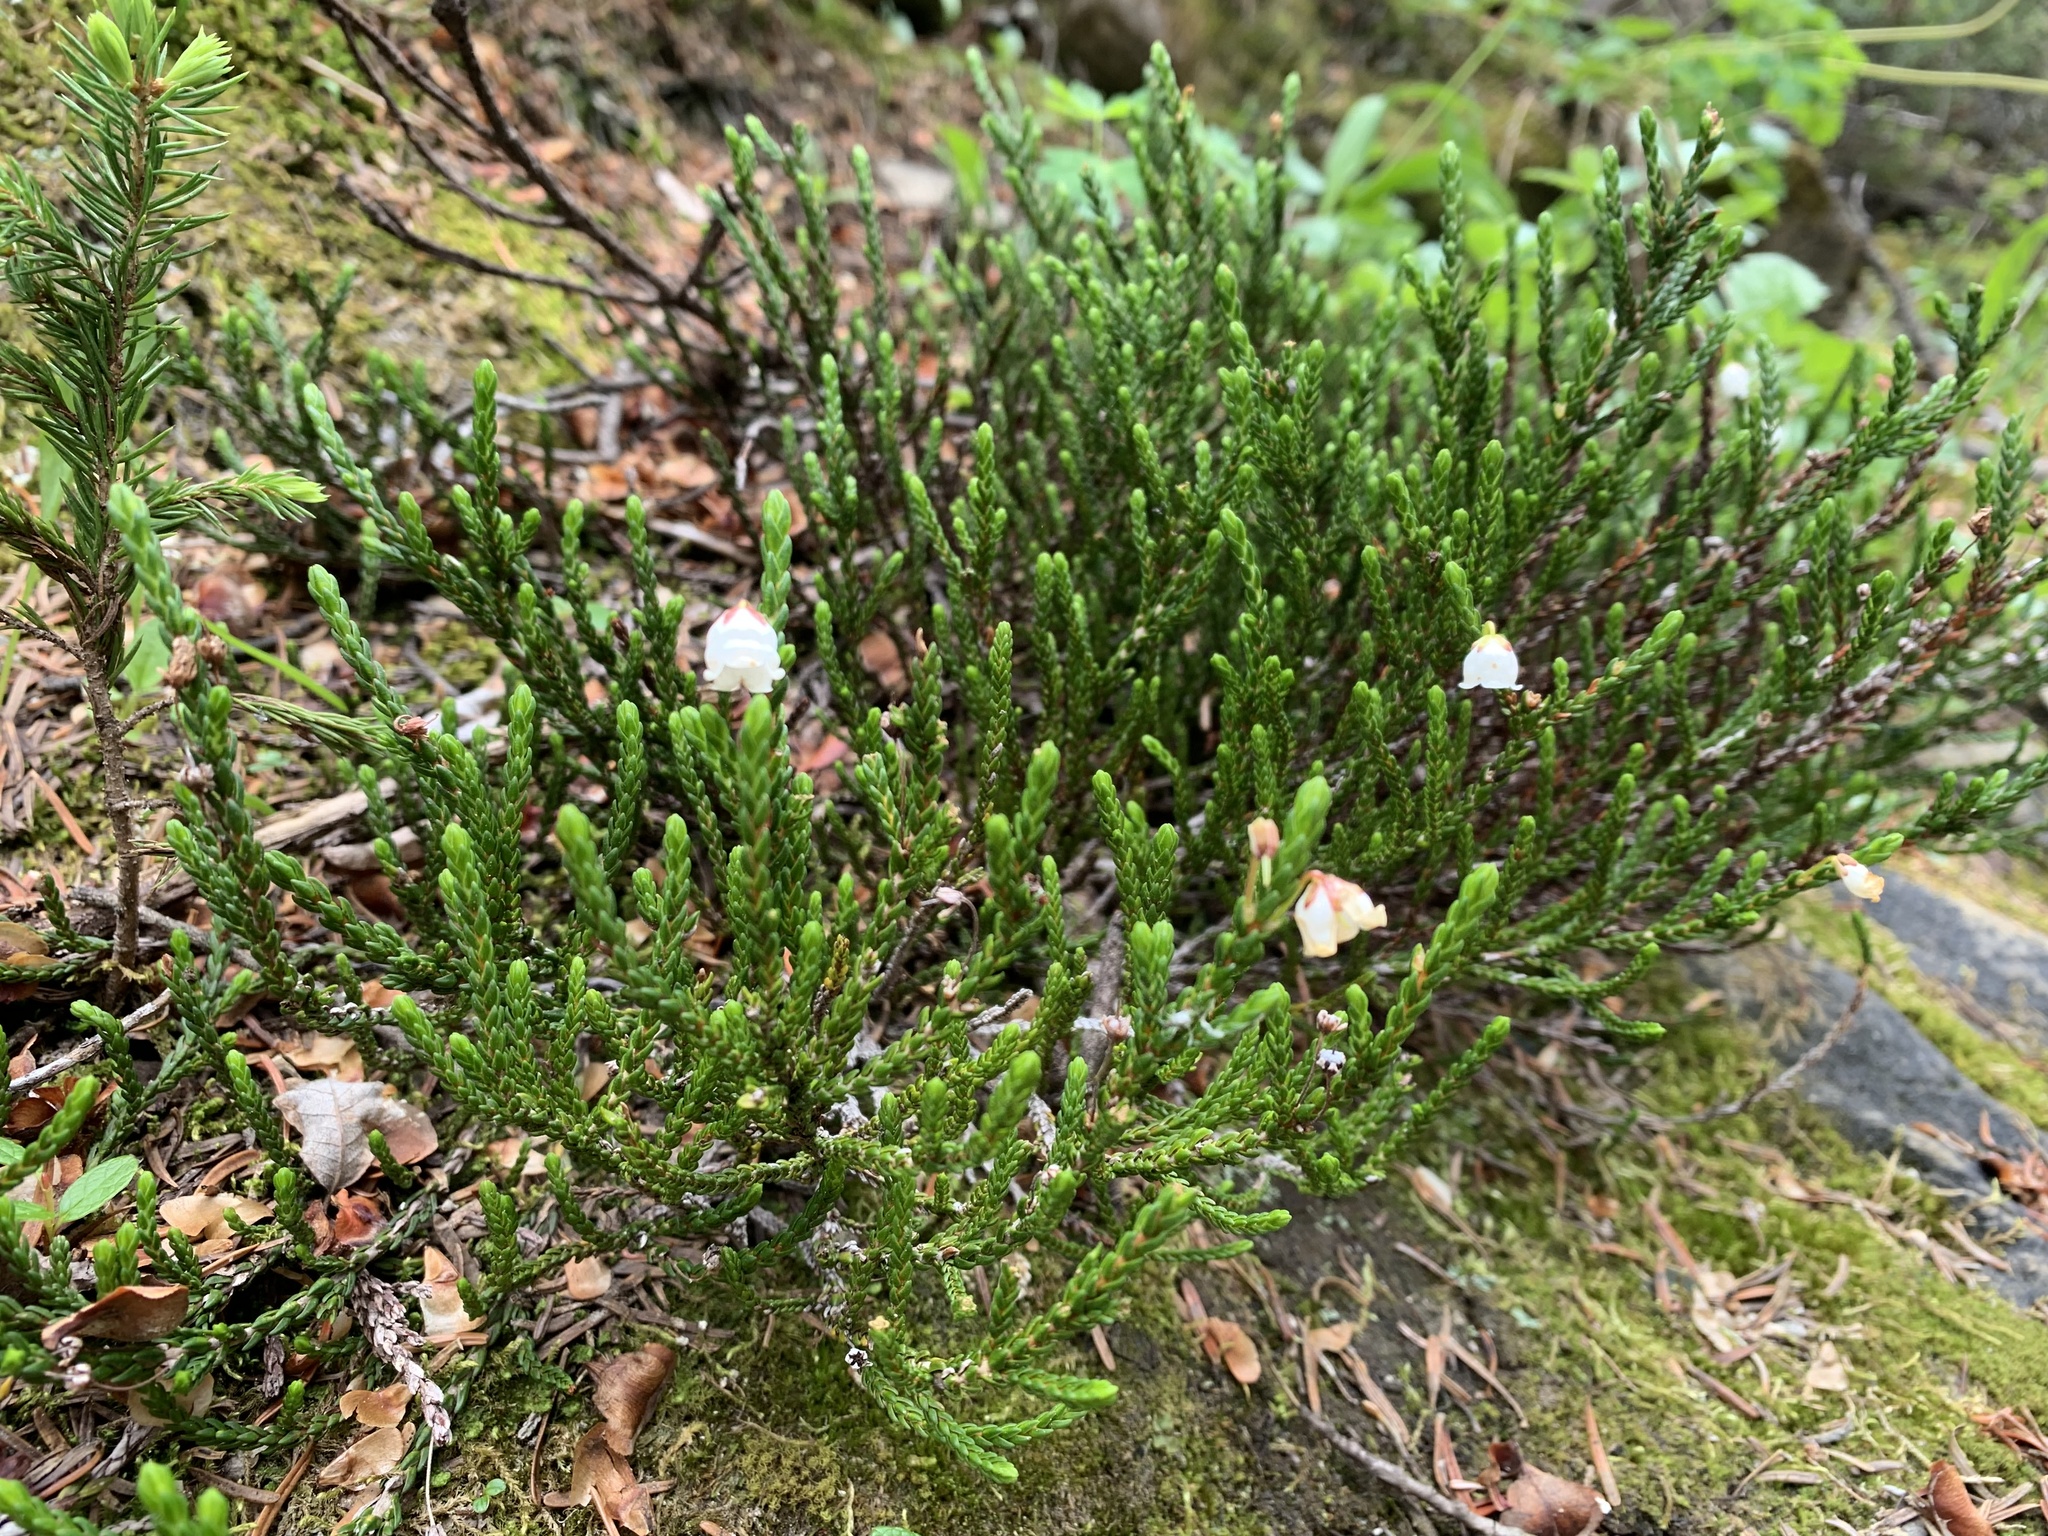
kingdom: Plantae
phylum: Tracheophyta
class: Magnoliopsida
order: Ericales
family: Ericaceae
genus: Cassiope
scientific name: Cassiope mertensiana
